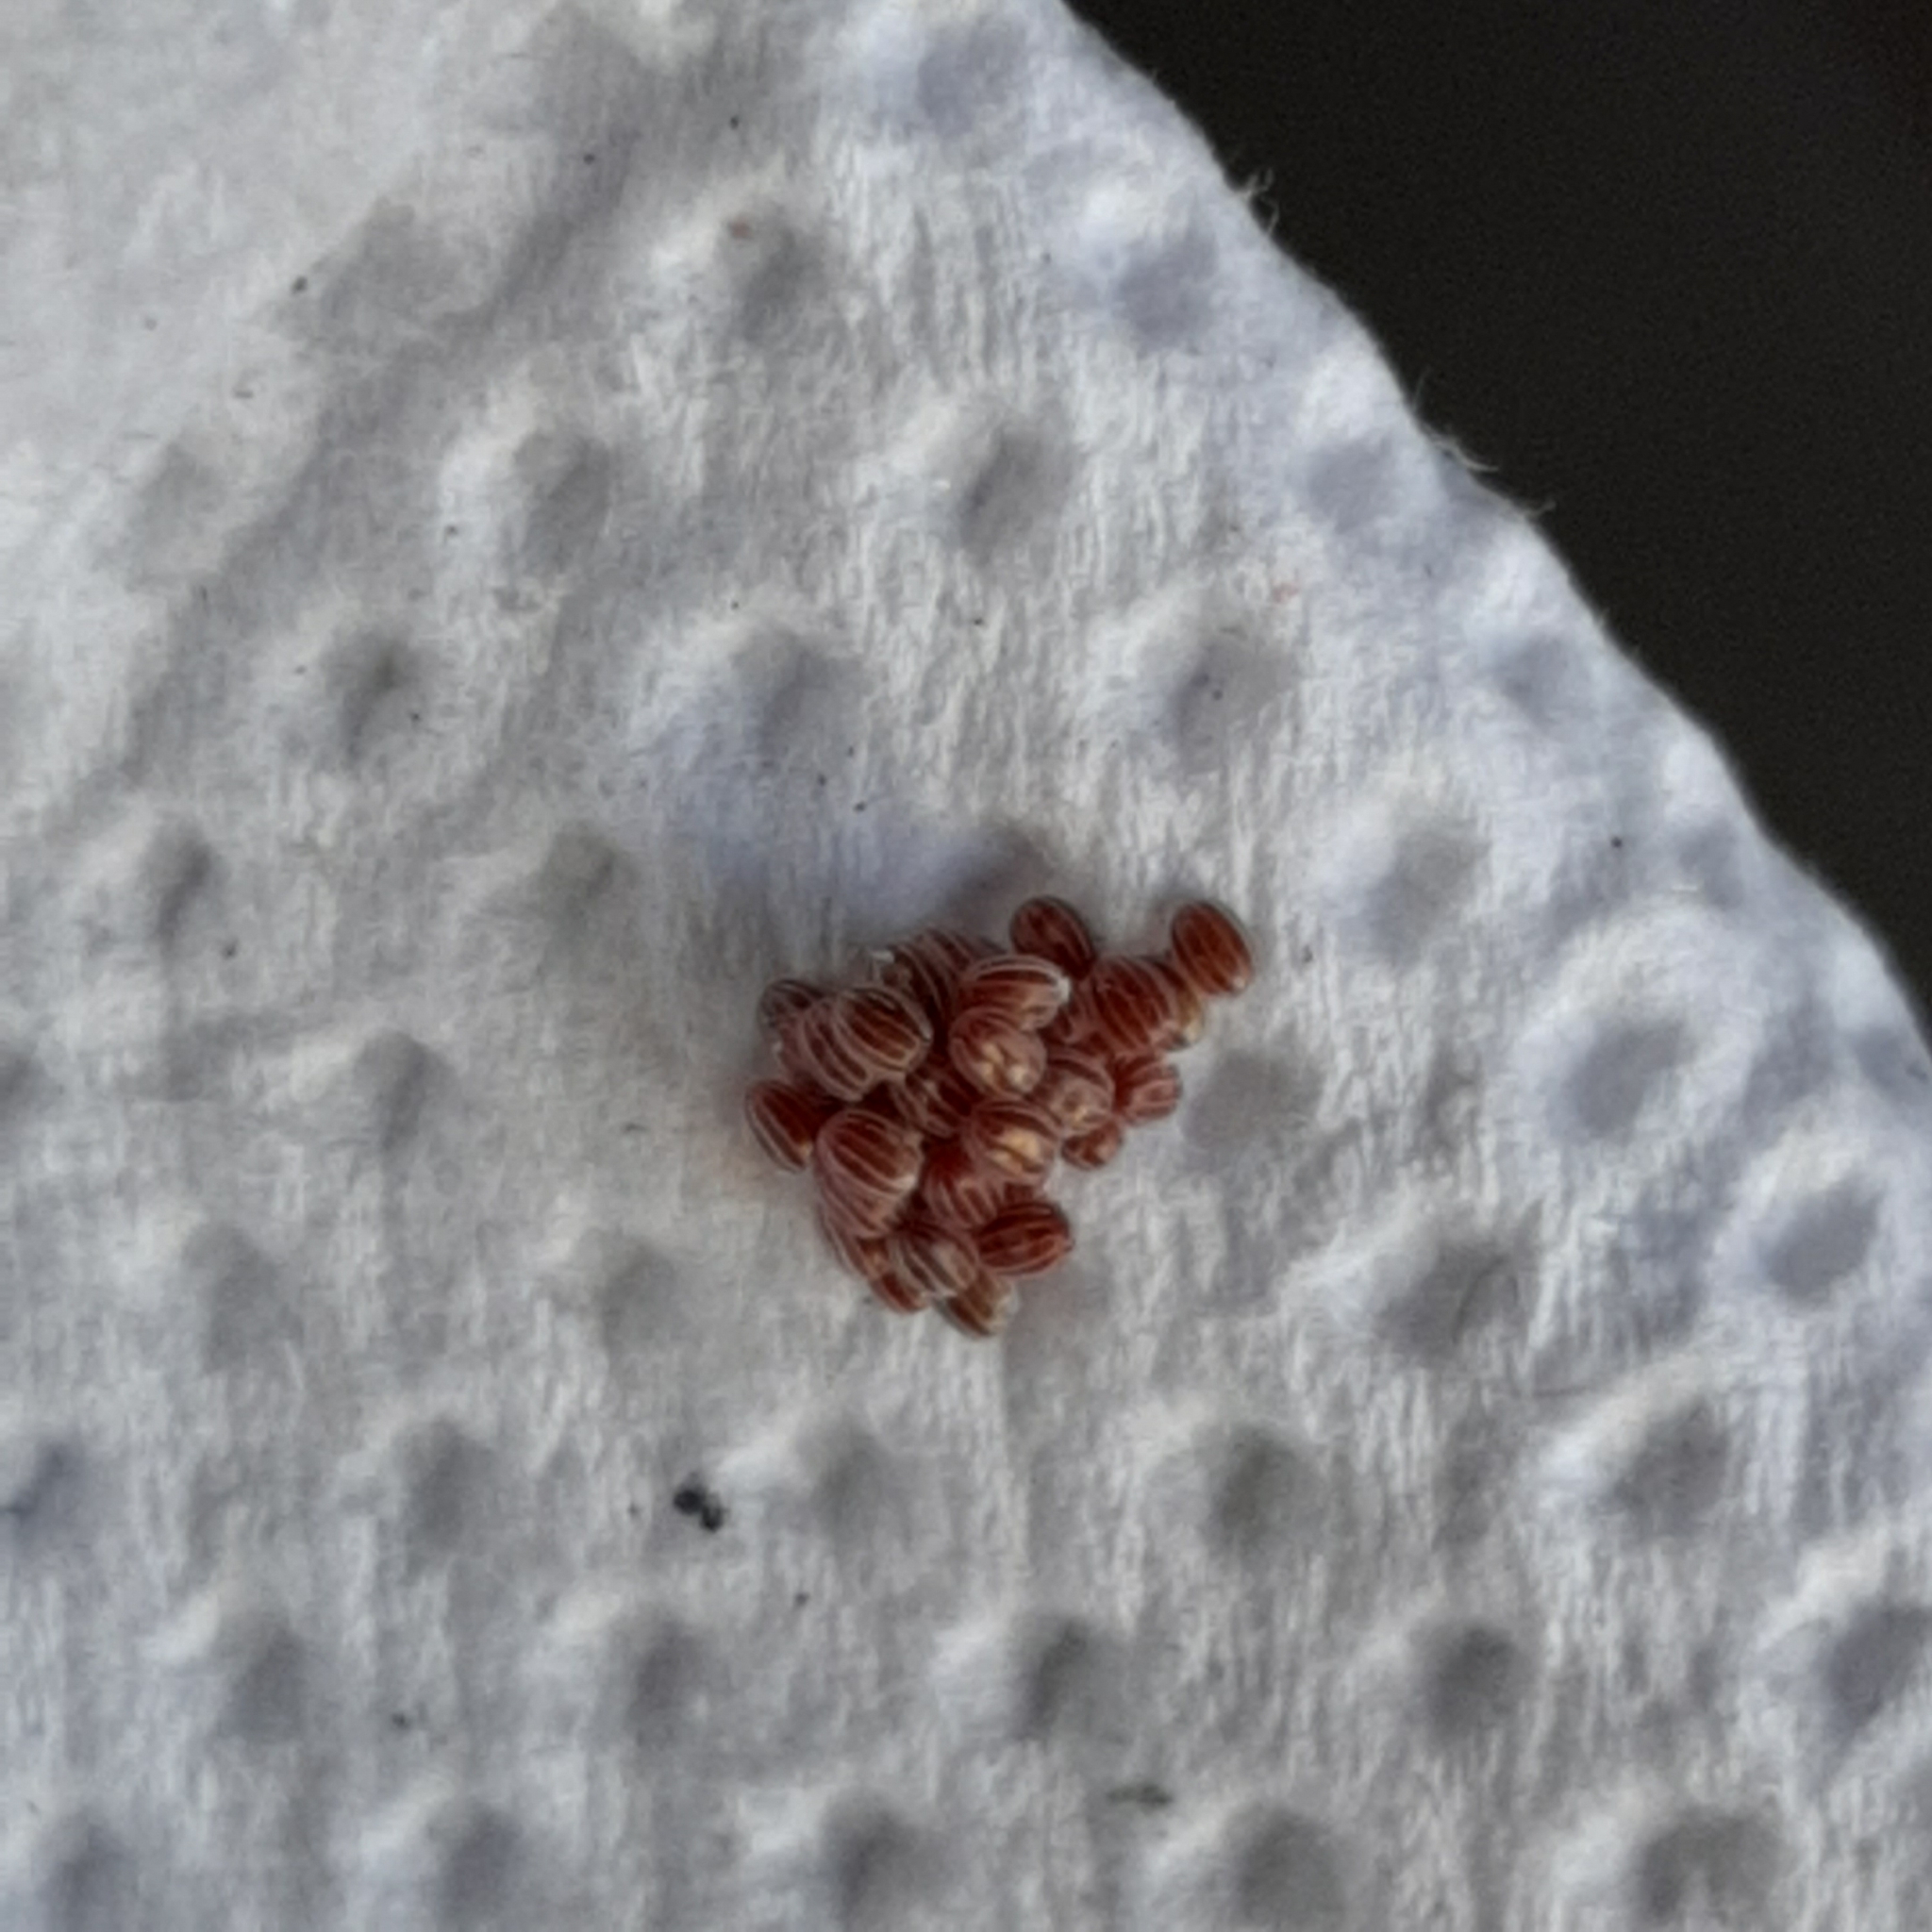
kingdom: Animalia
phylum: Arthropoda
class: Insecta
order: Lepidoptera
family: Geometridae
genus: Brachurapteryx
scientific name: Brachurapteryx tesserata
